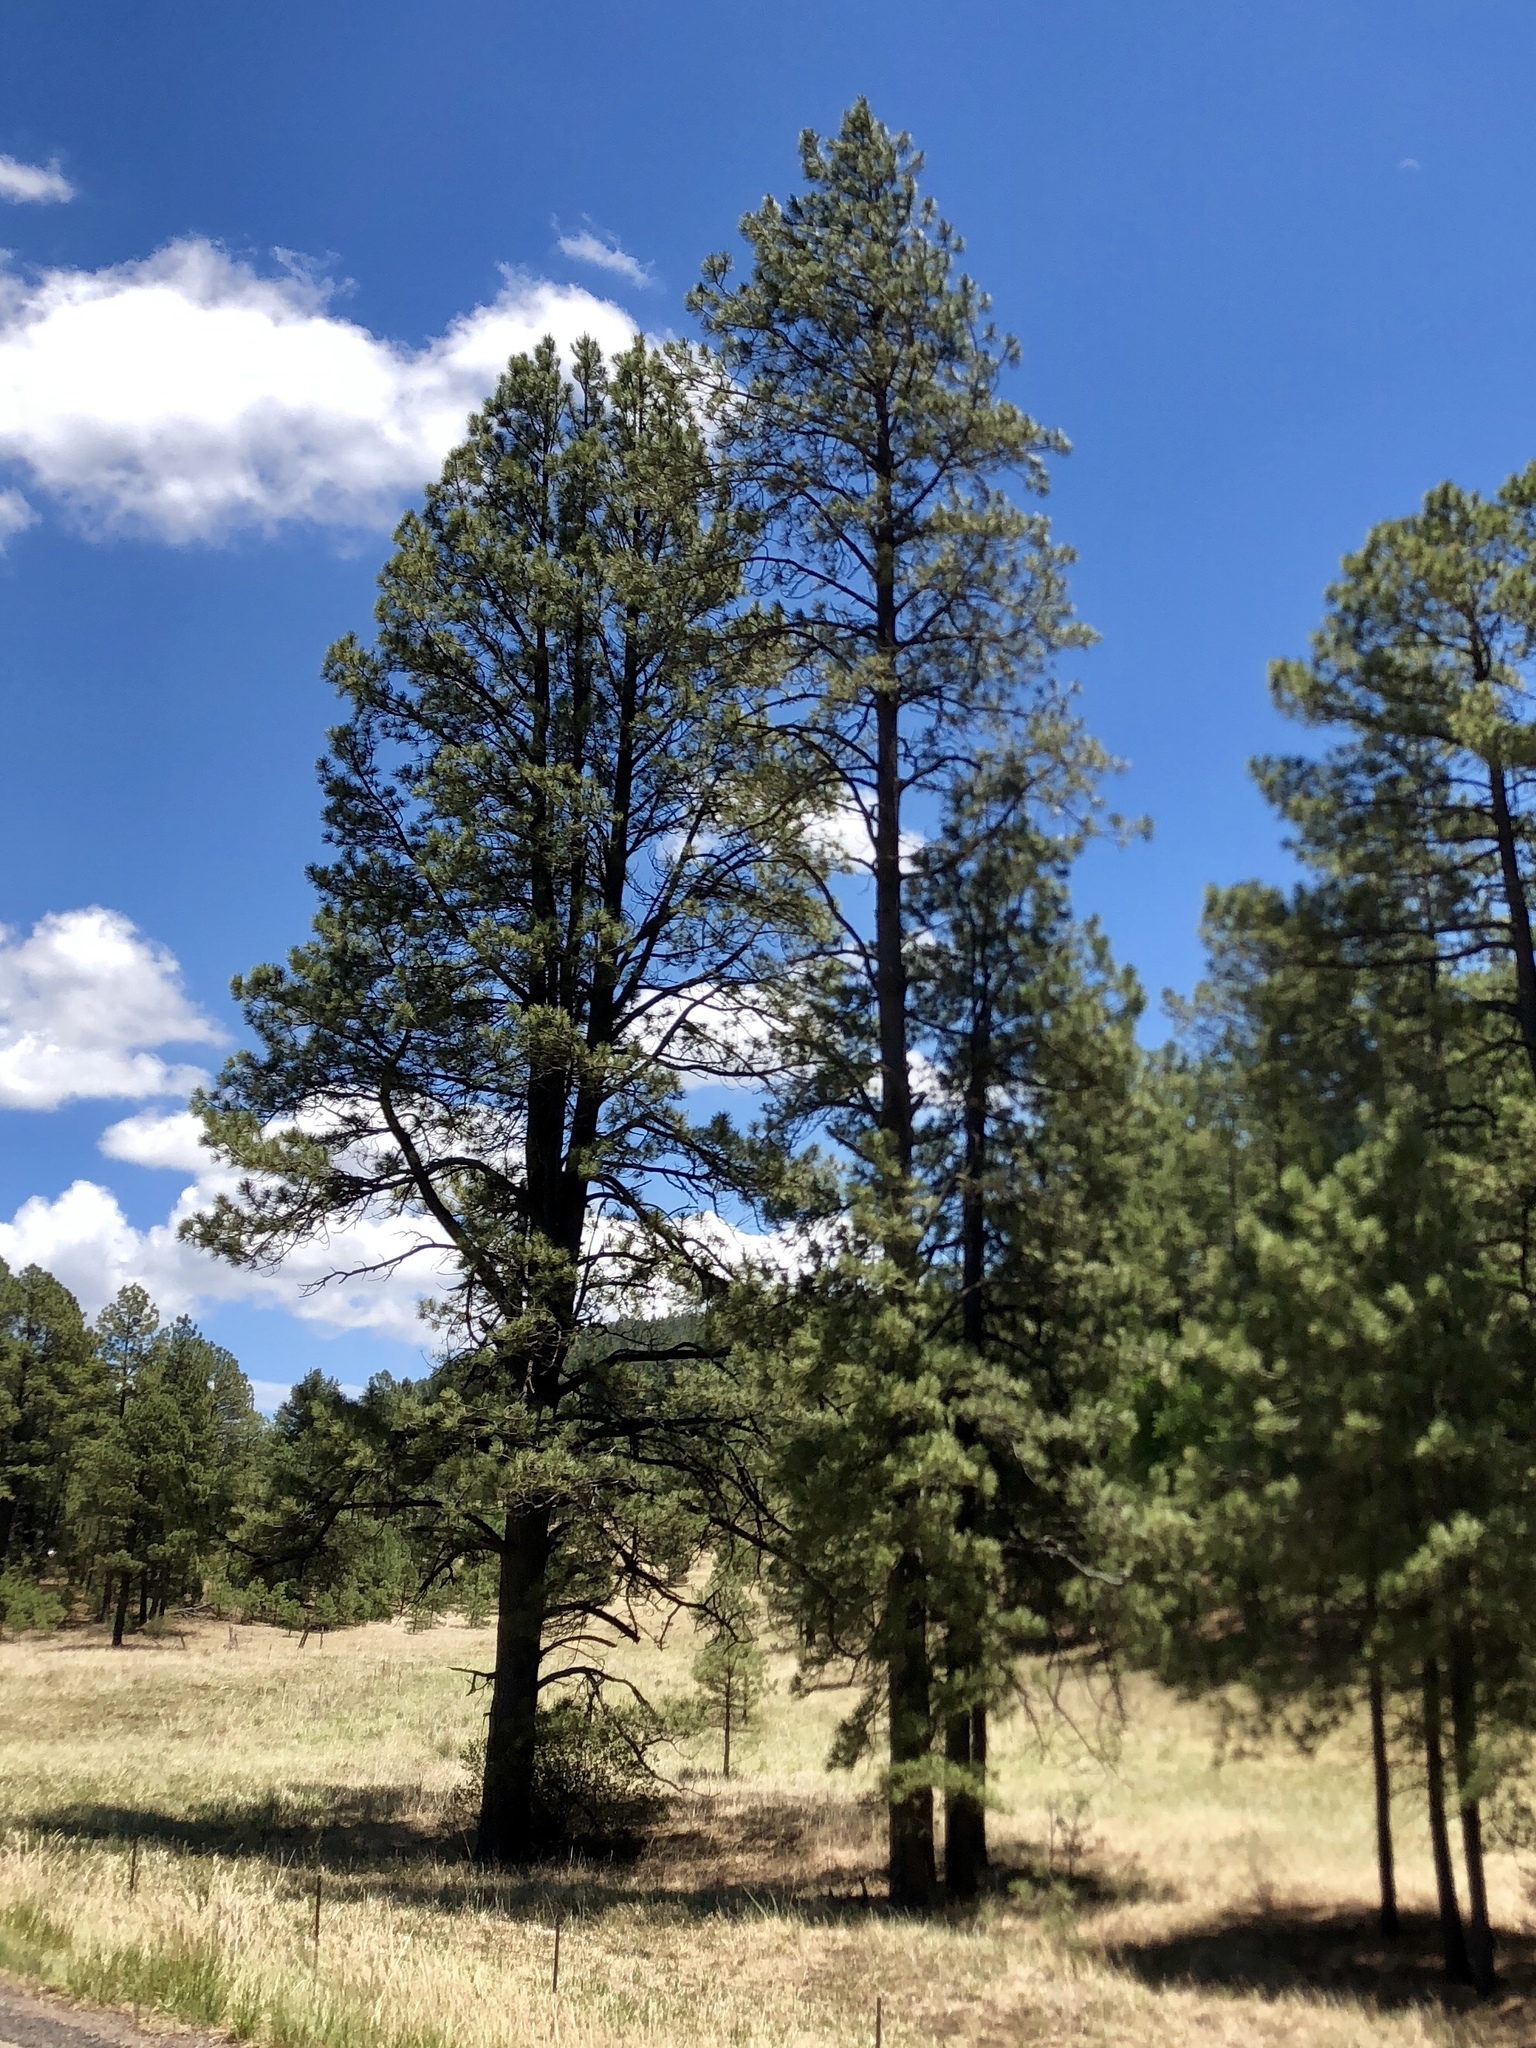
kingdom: Plantae
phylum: Tracheophyta
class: Pinopsida
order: Pinales
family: Pinaceae
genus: Pinus
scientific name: Pinus ponderosa
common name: Western yellow-pine
